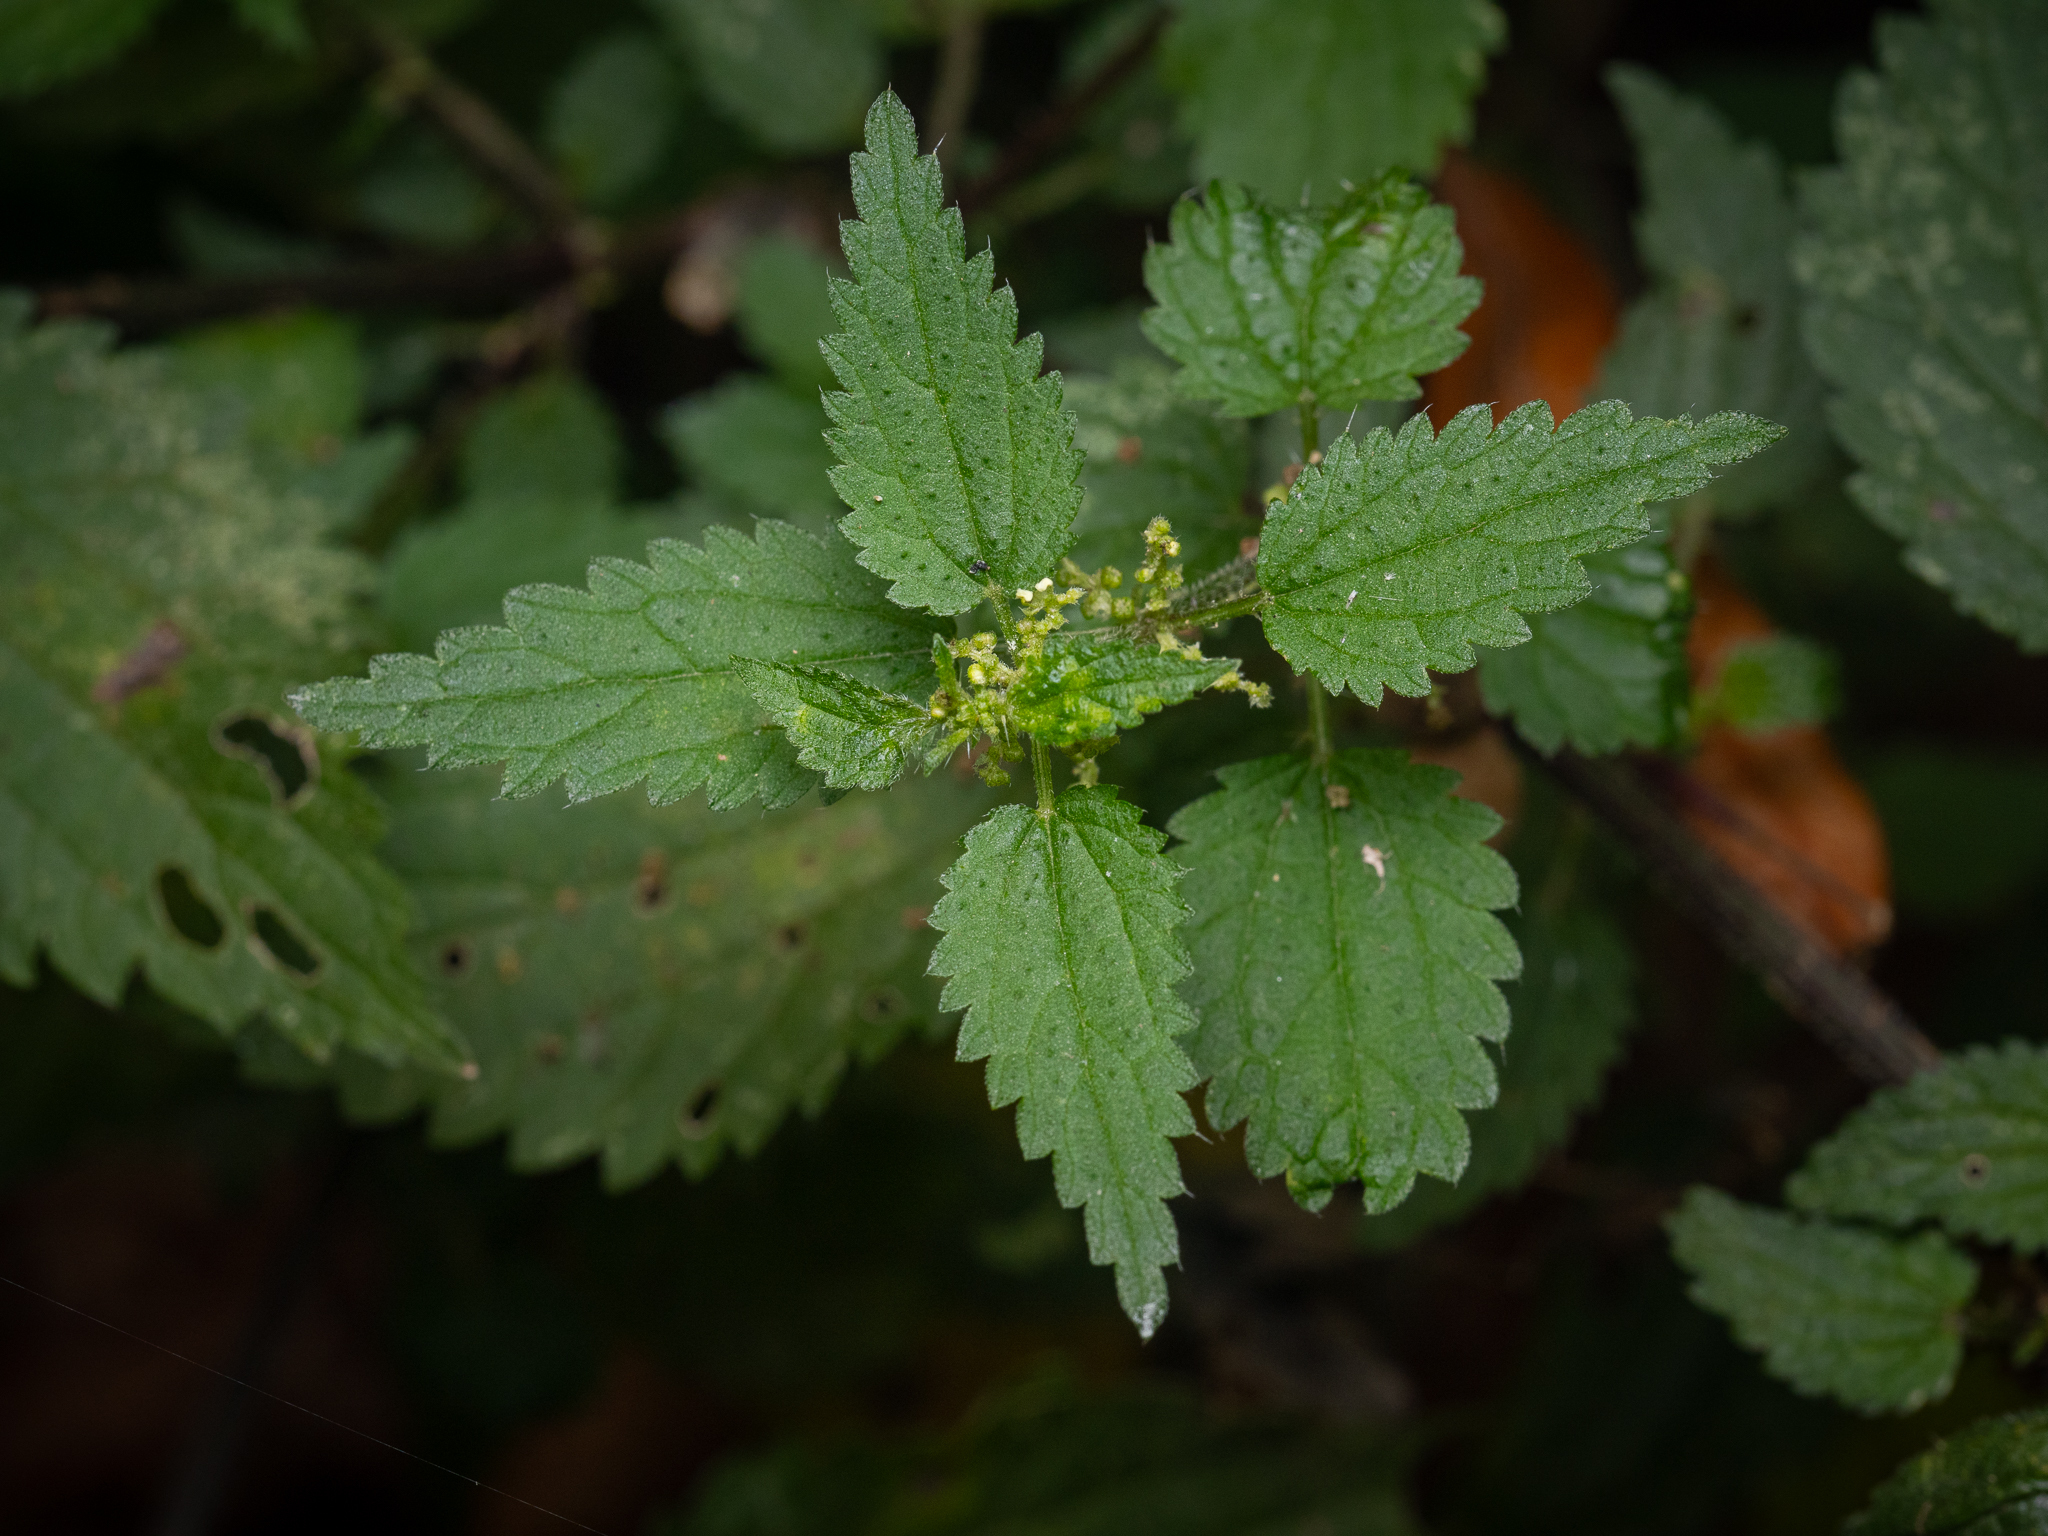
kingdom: Plantae
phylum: Tracheophyta
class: Magnoliopsida
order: Rosales
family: Urticaceae
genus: Urtica
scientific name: Urtica dioica
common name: Common nettle
